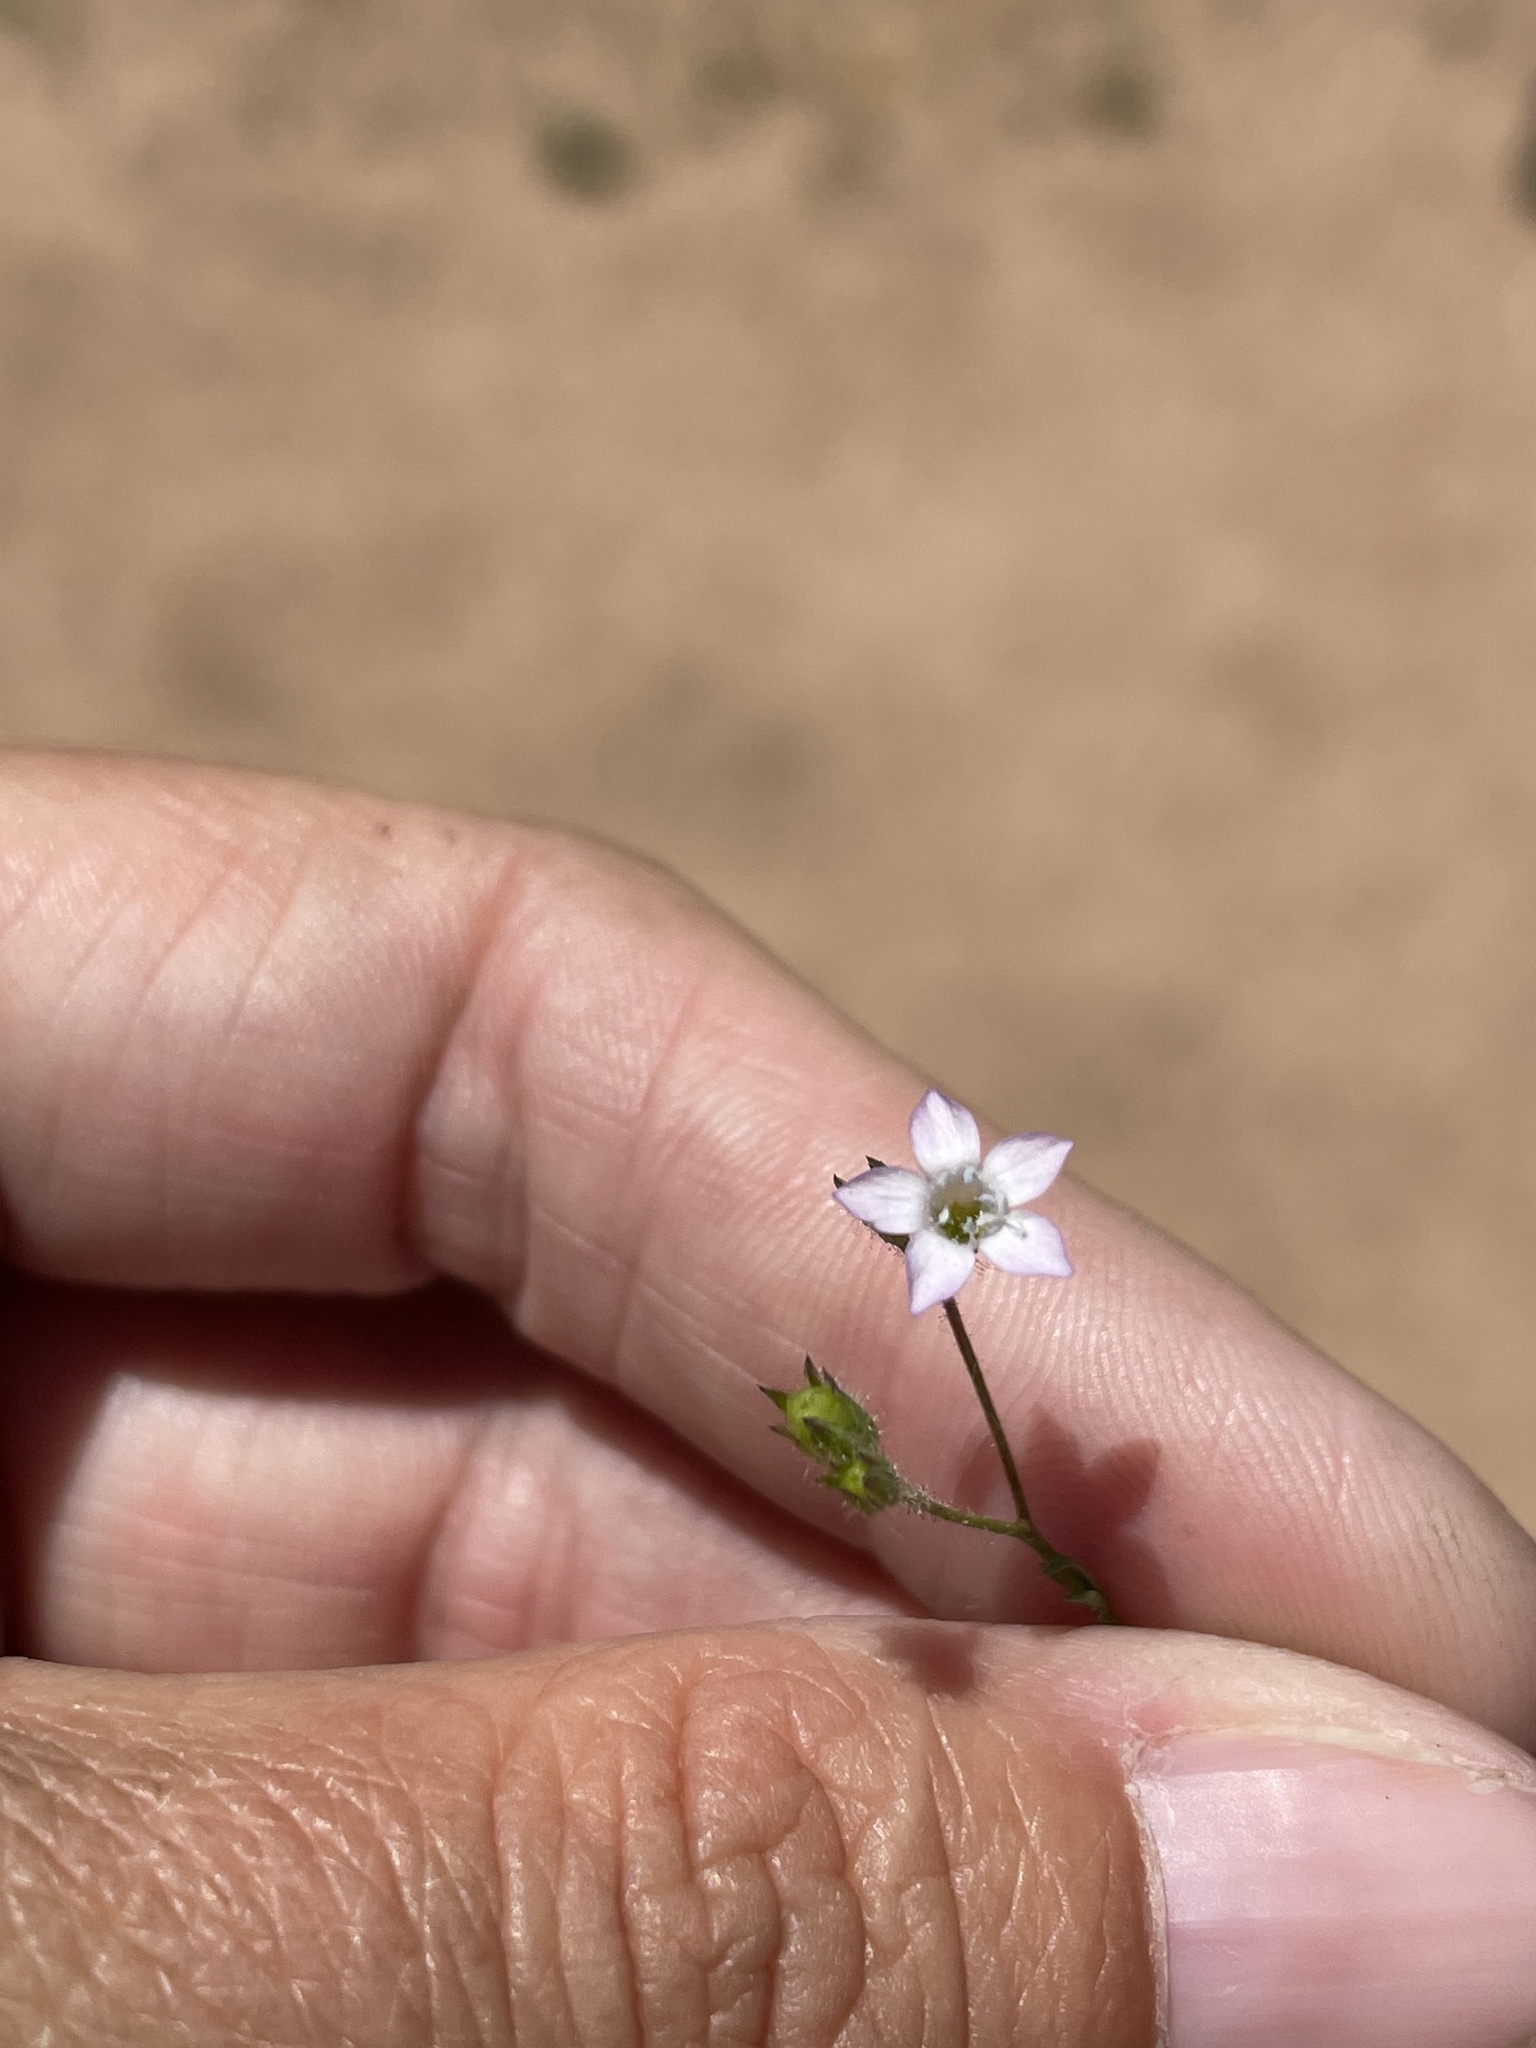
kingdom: Plantae
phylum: Tracheophyta
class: Magnoliopsida
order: Ericales
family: Polemoniaceae
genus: Gilia
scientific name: Gilia angelensis
